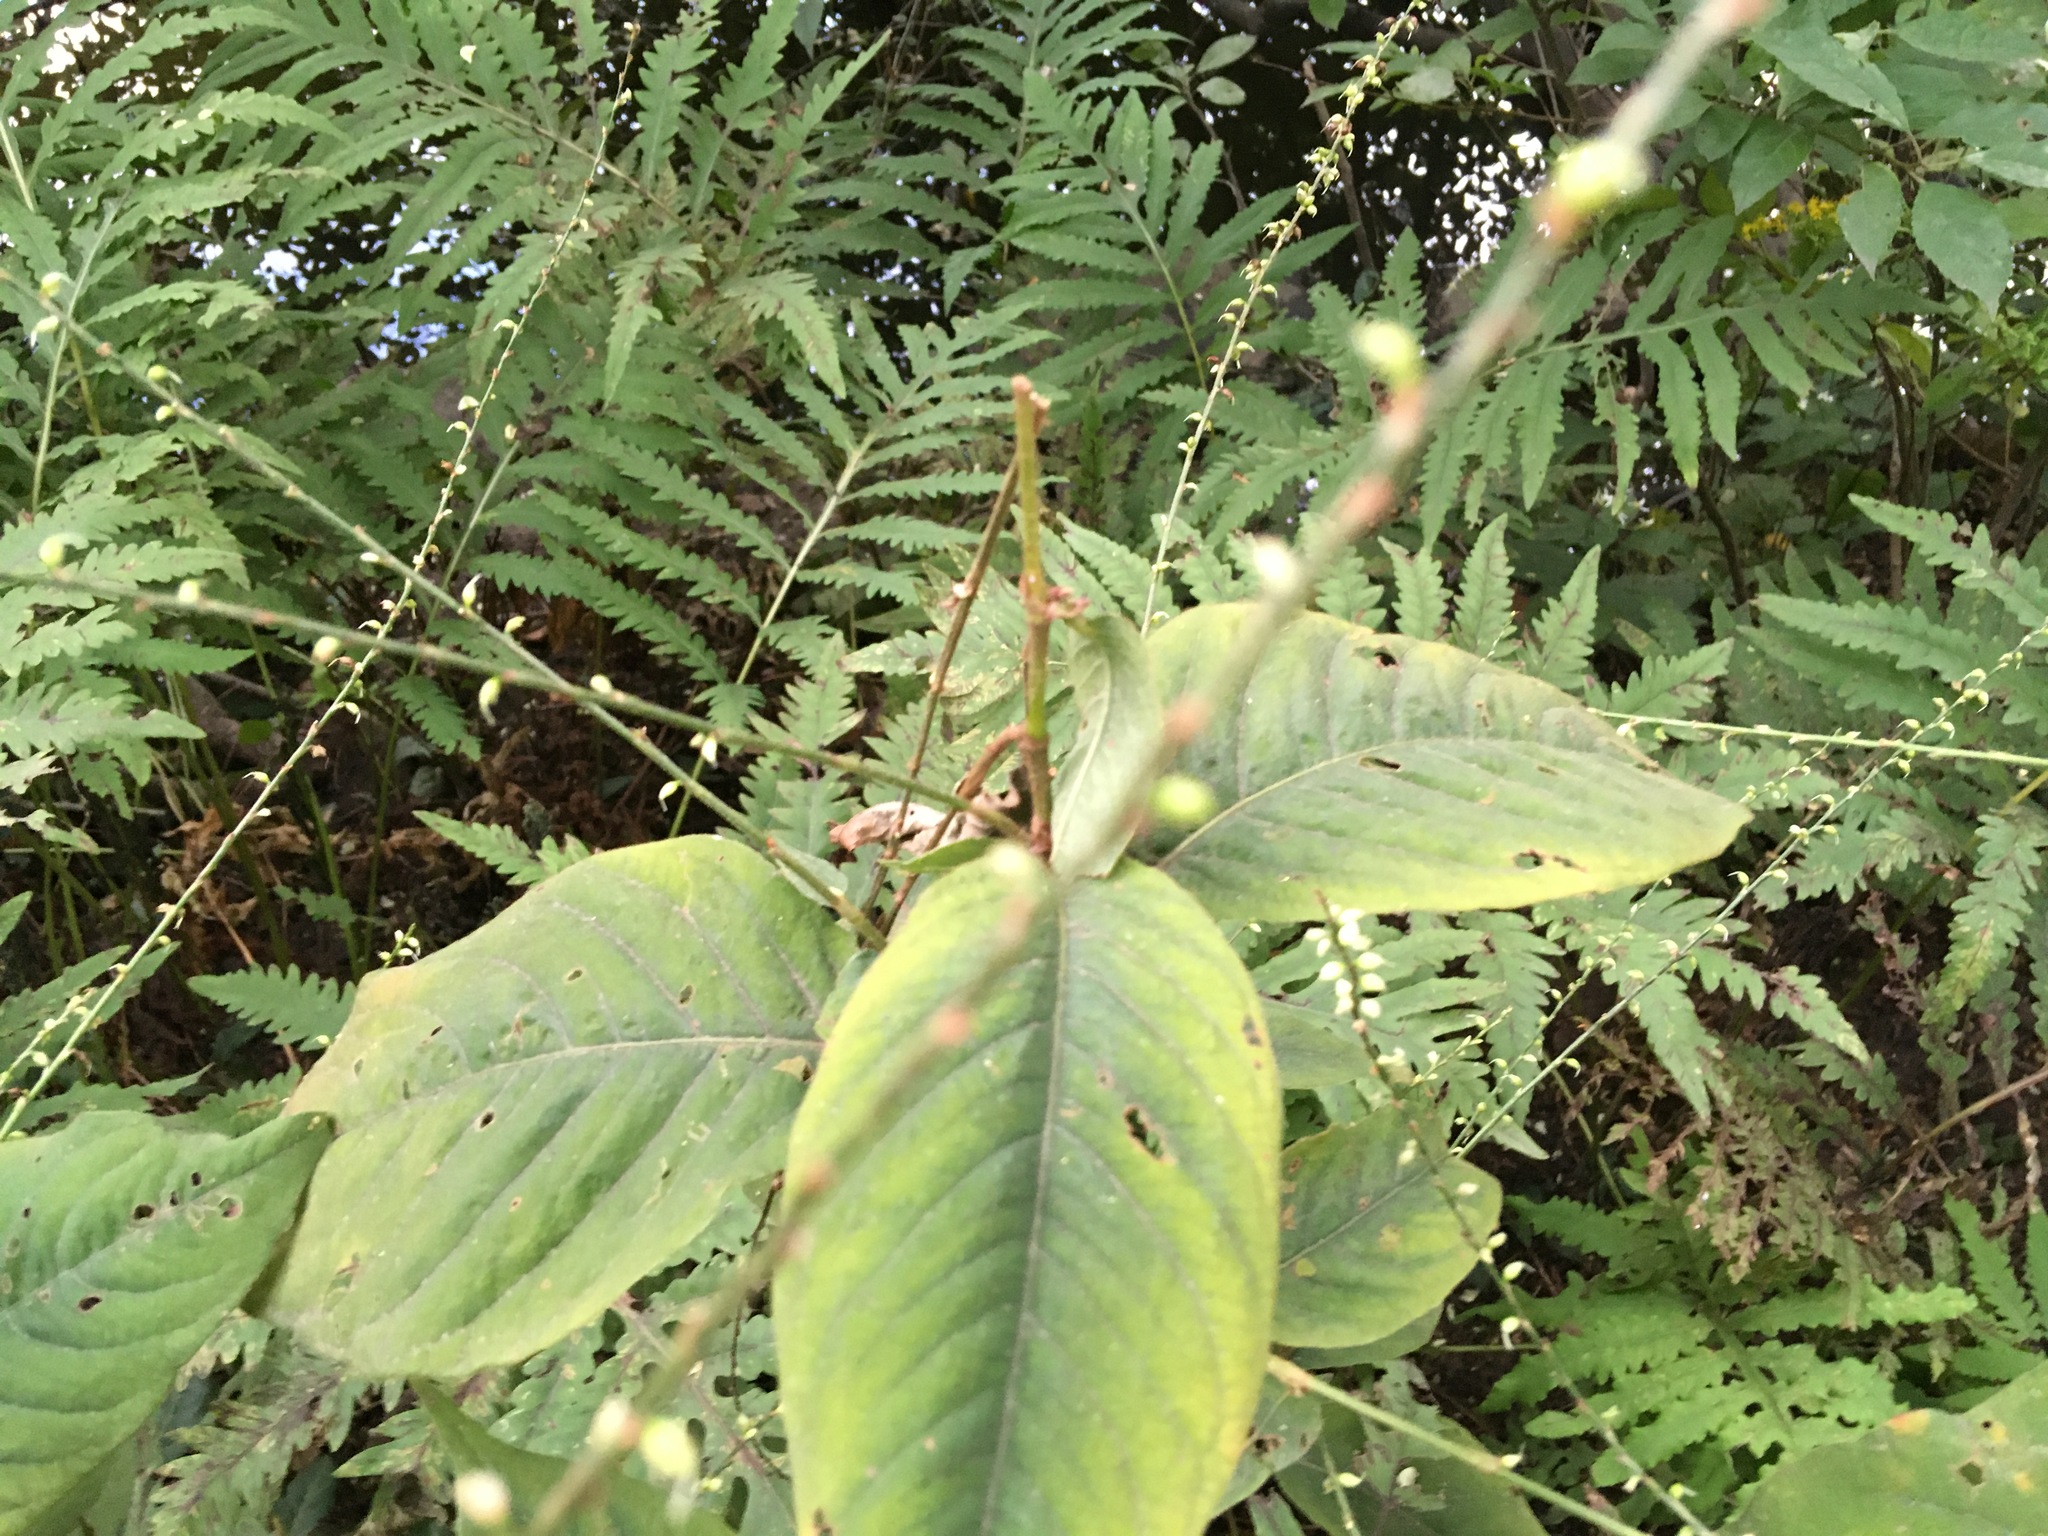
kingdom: Plantae
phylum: Tracheophyta
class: Magnoliopsida
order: Caryophyllales
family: Polygonaceae
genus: Persicaria
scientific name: Persicaria virginiana
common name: Jumpseed
